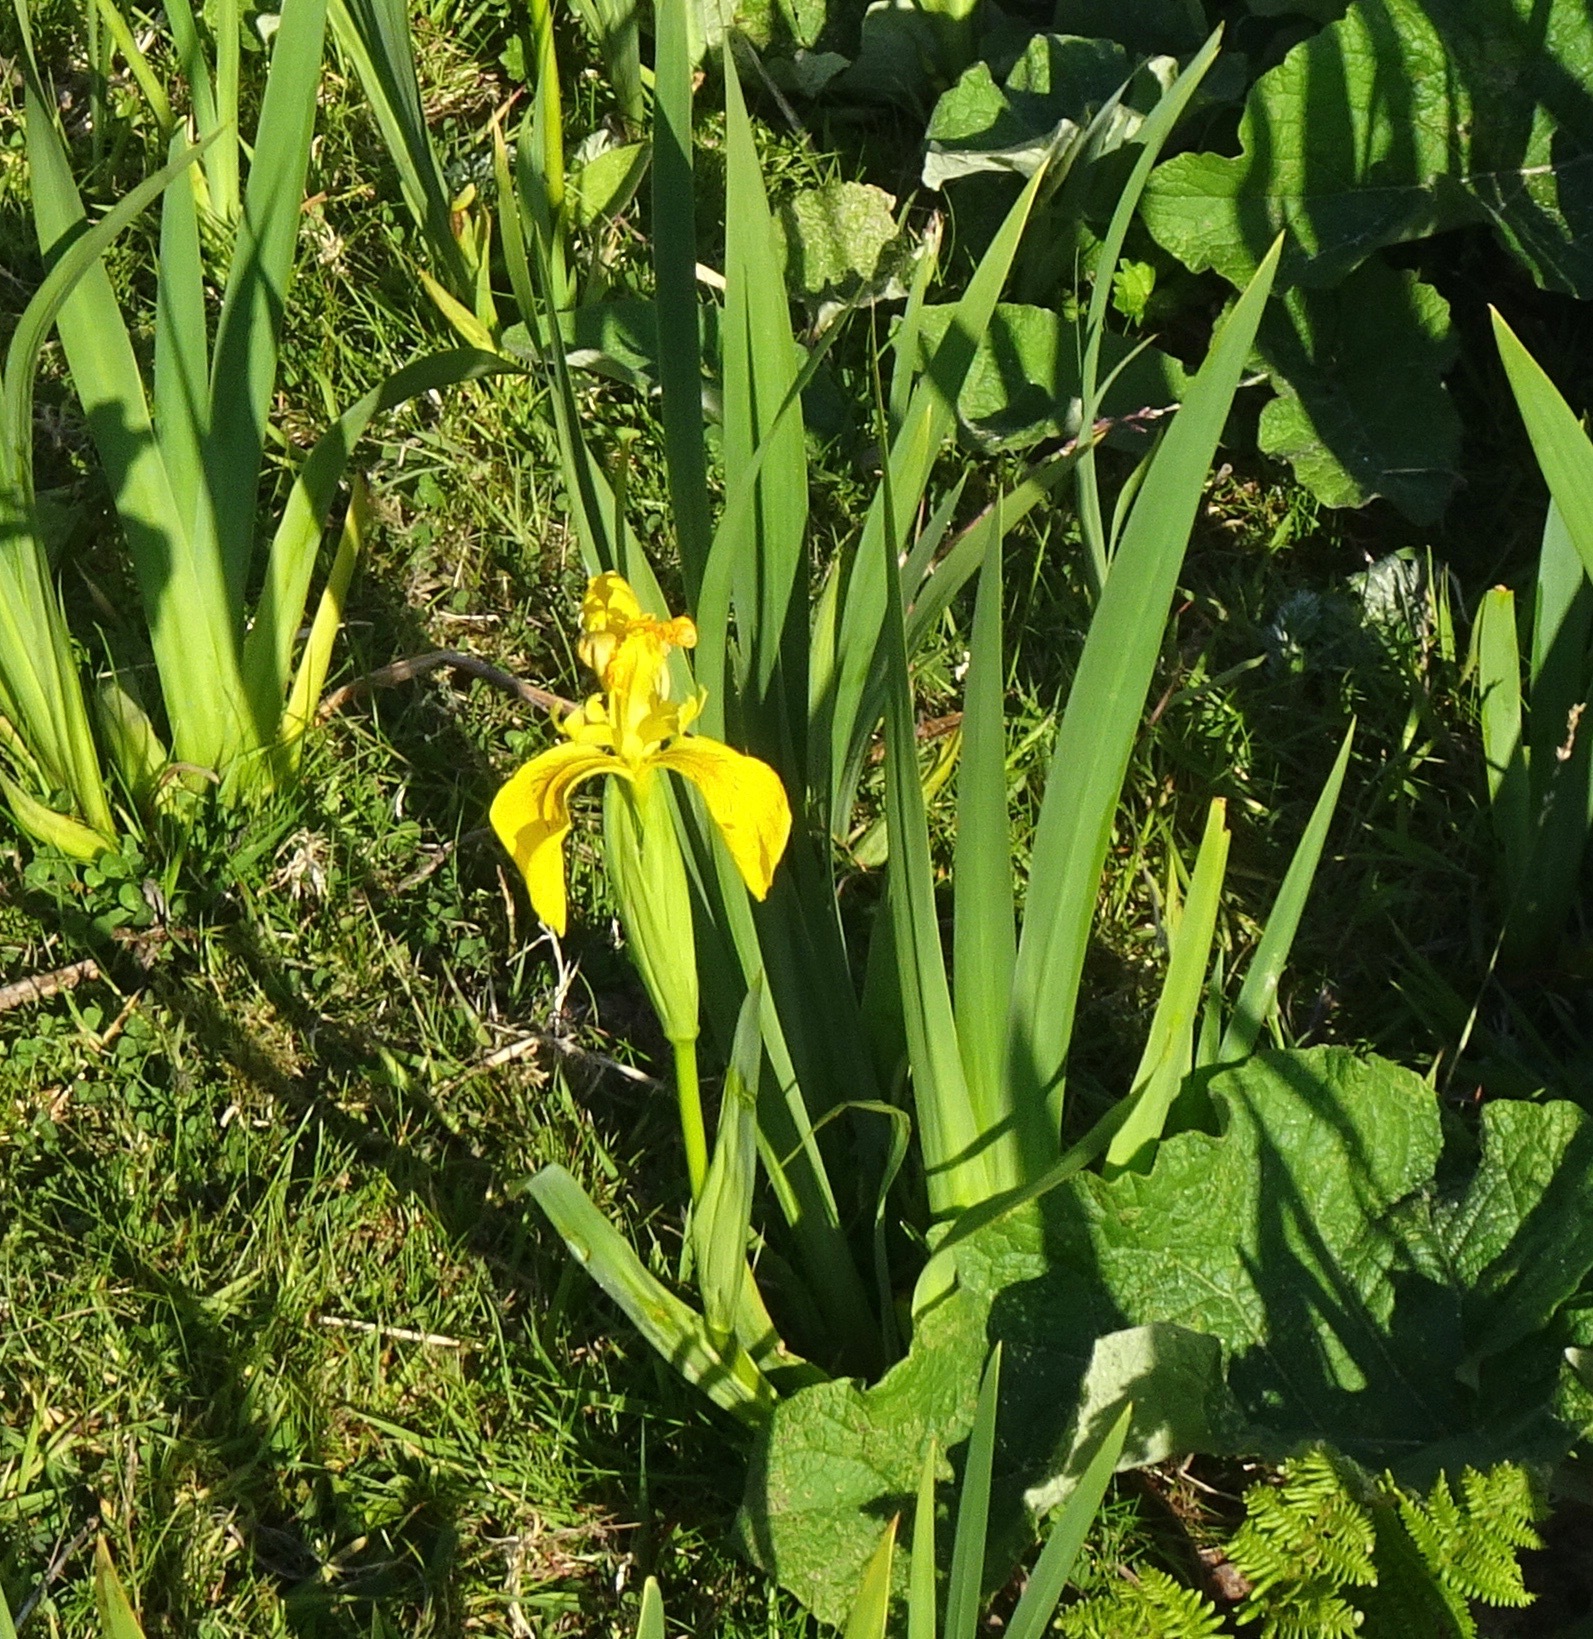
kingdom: Plantae
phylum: Tracheophyta
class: Liliopsida
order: Asparagales
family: Iridaceae
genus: Iris
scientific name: Iris pseudacorus
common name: Yellow flag
